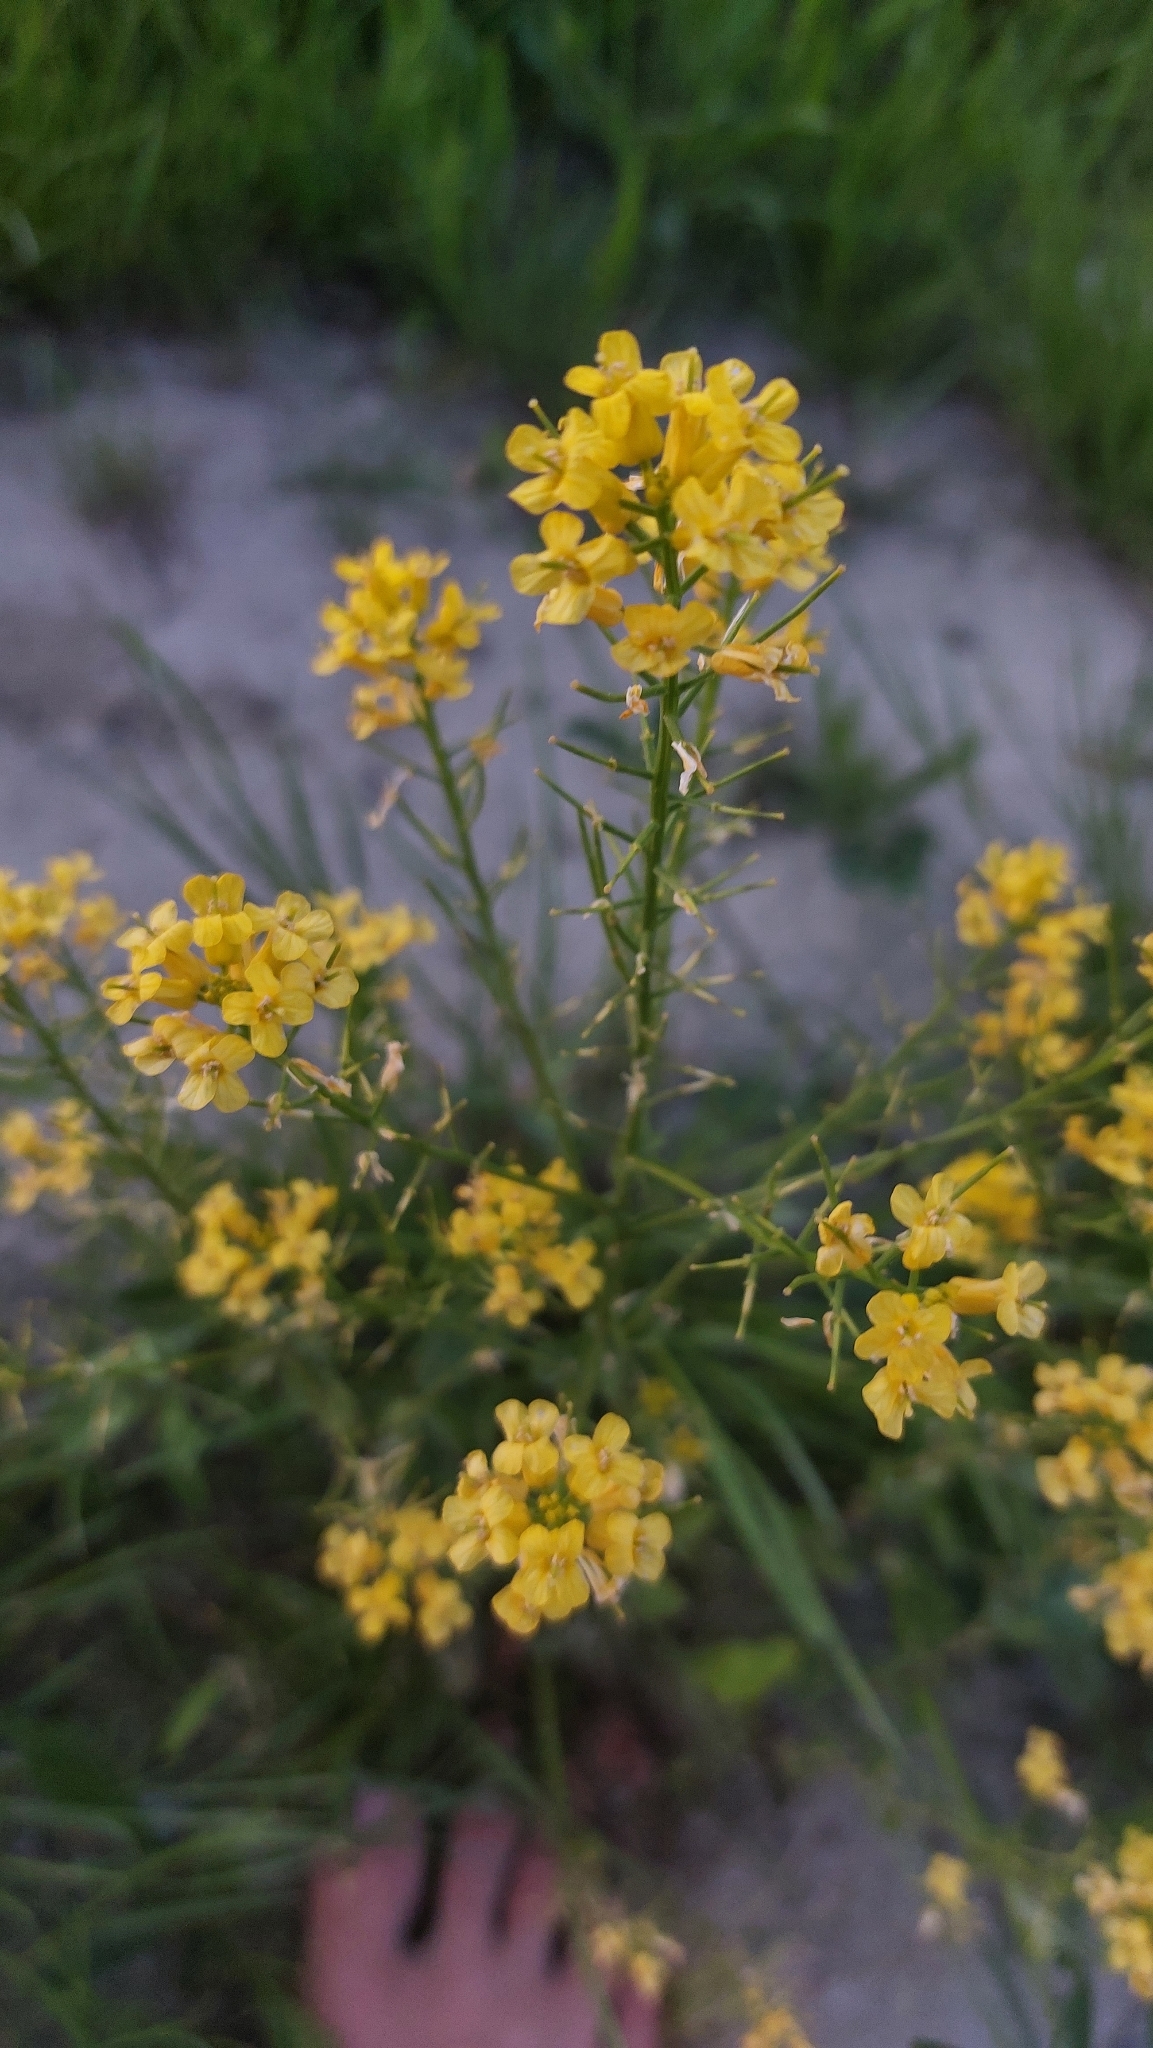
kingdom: Plantae
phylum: Tracheophyta
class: Magnoliopsida
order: Brassicales
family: Brassicaceae
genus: Barbarea
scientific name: Barbarea vulgaris
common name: Cressy-greens
